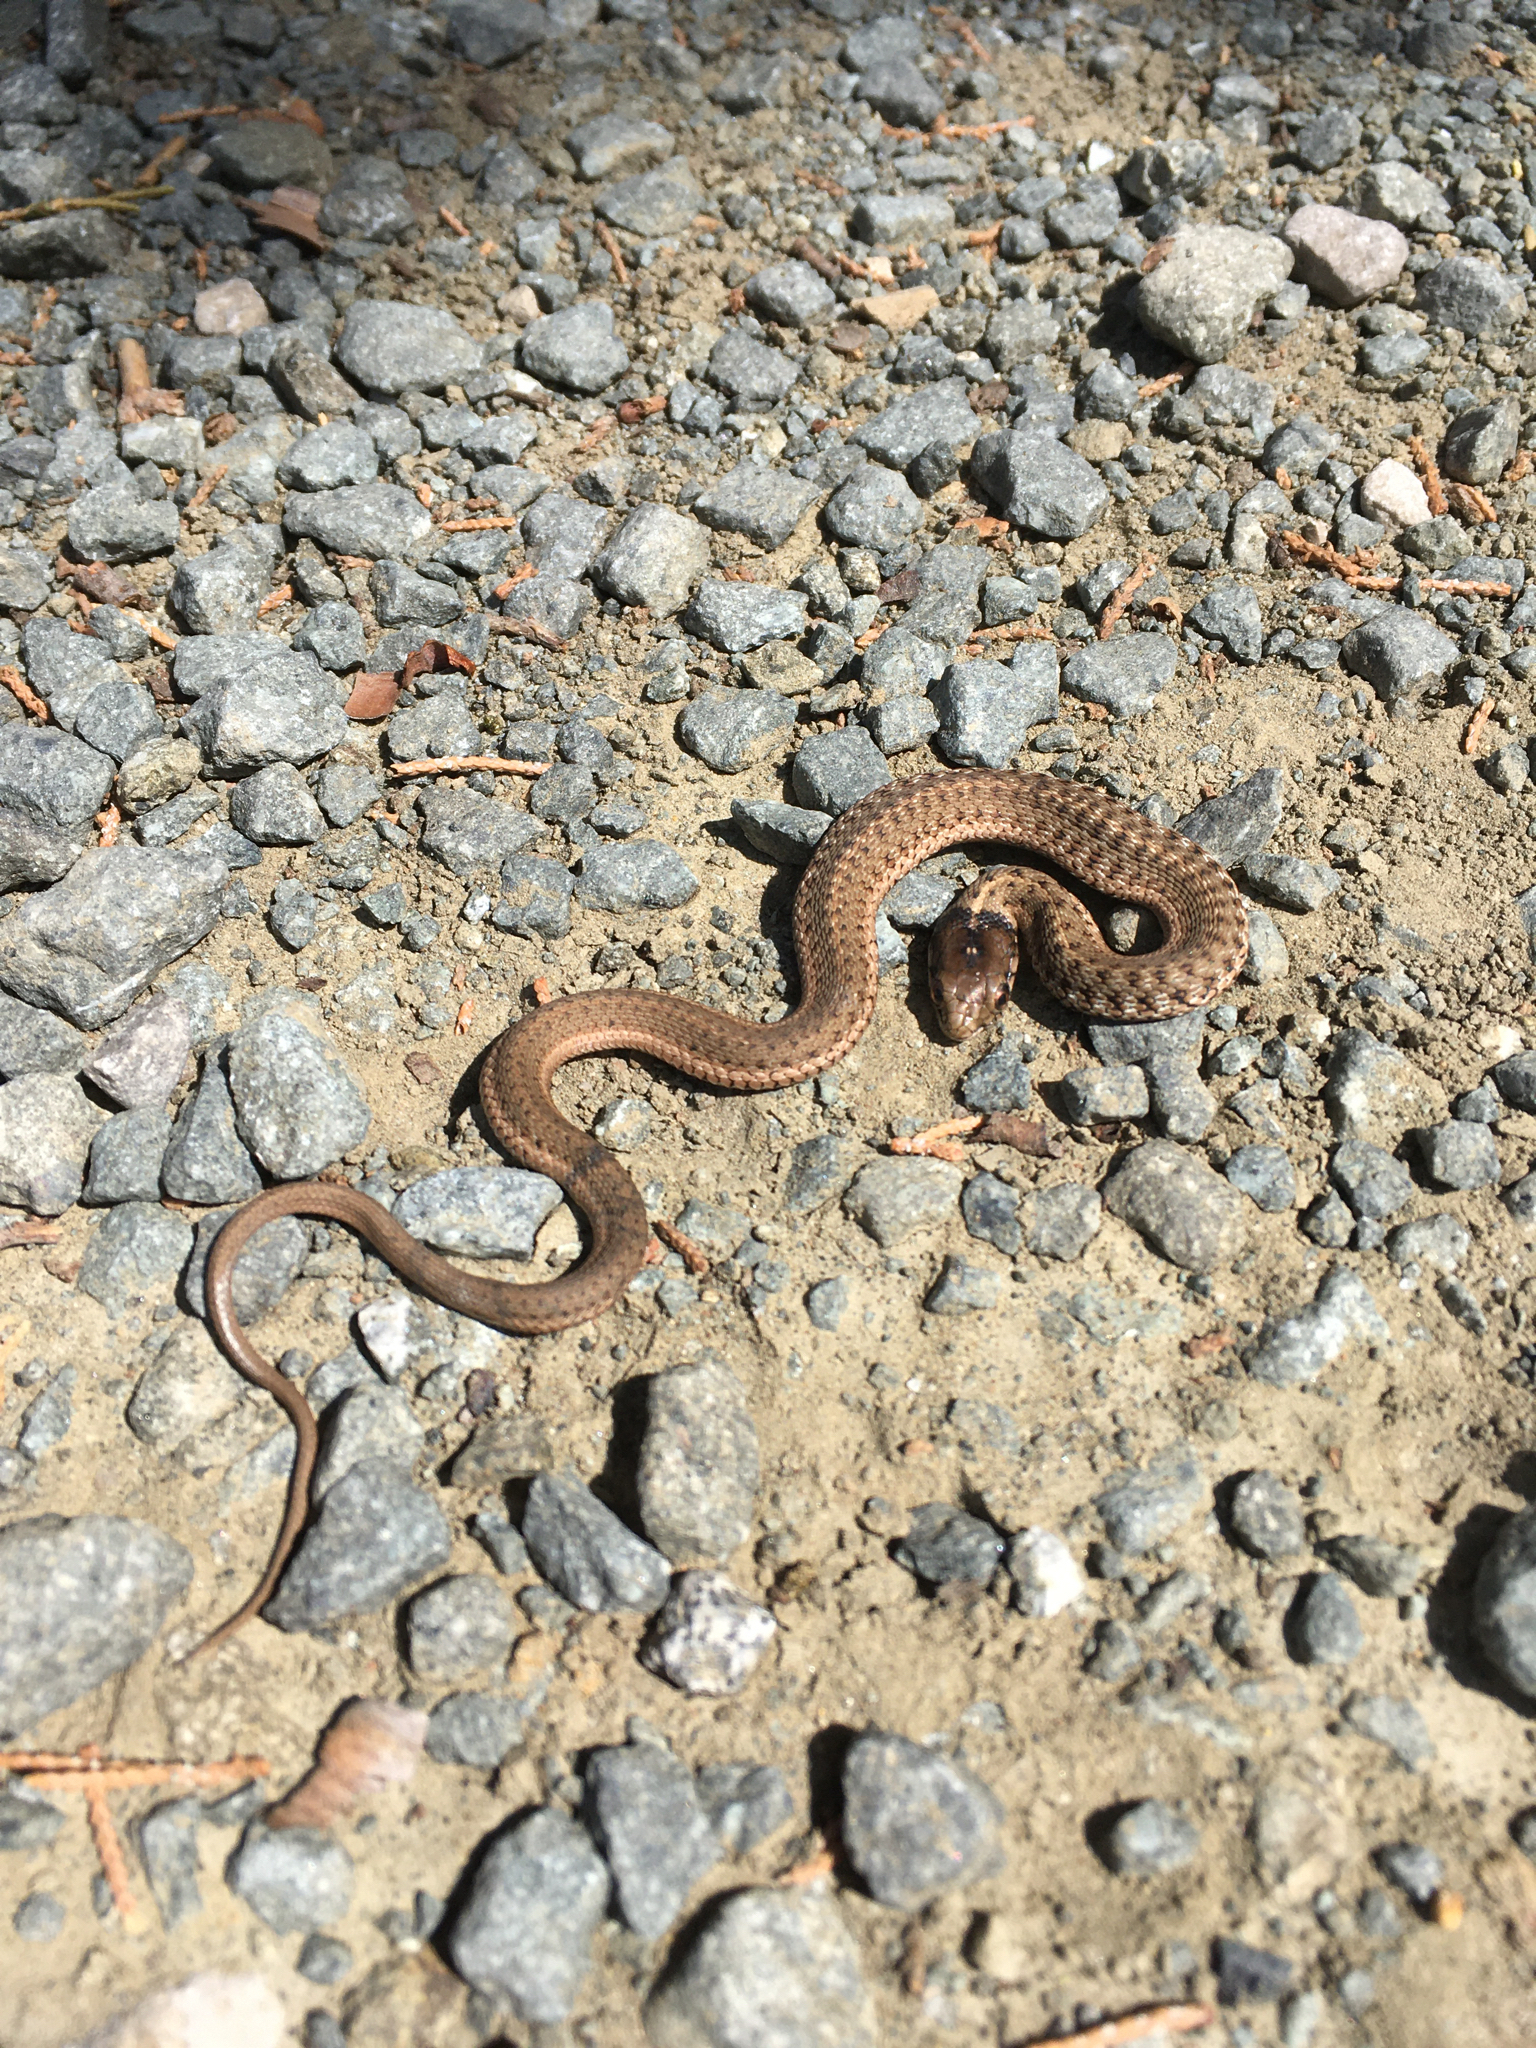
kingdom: Animalia
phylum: Chordata
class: Squamata
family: Colubridae
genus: Thamnophis
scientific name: Thamnophis elegans
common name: Western terrestrial garter snake
